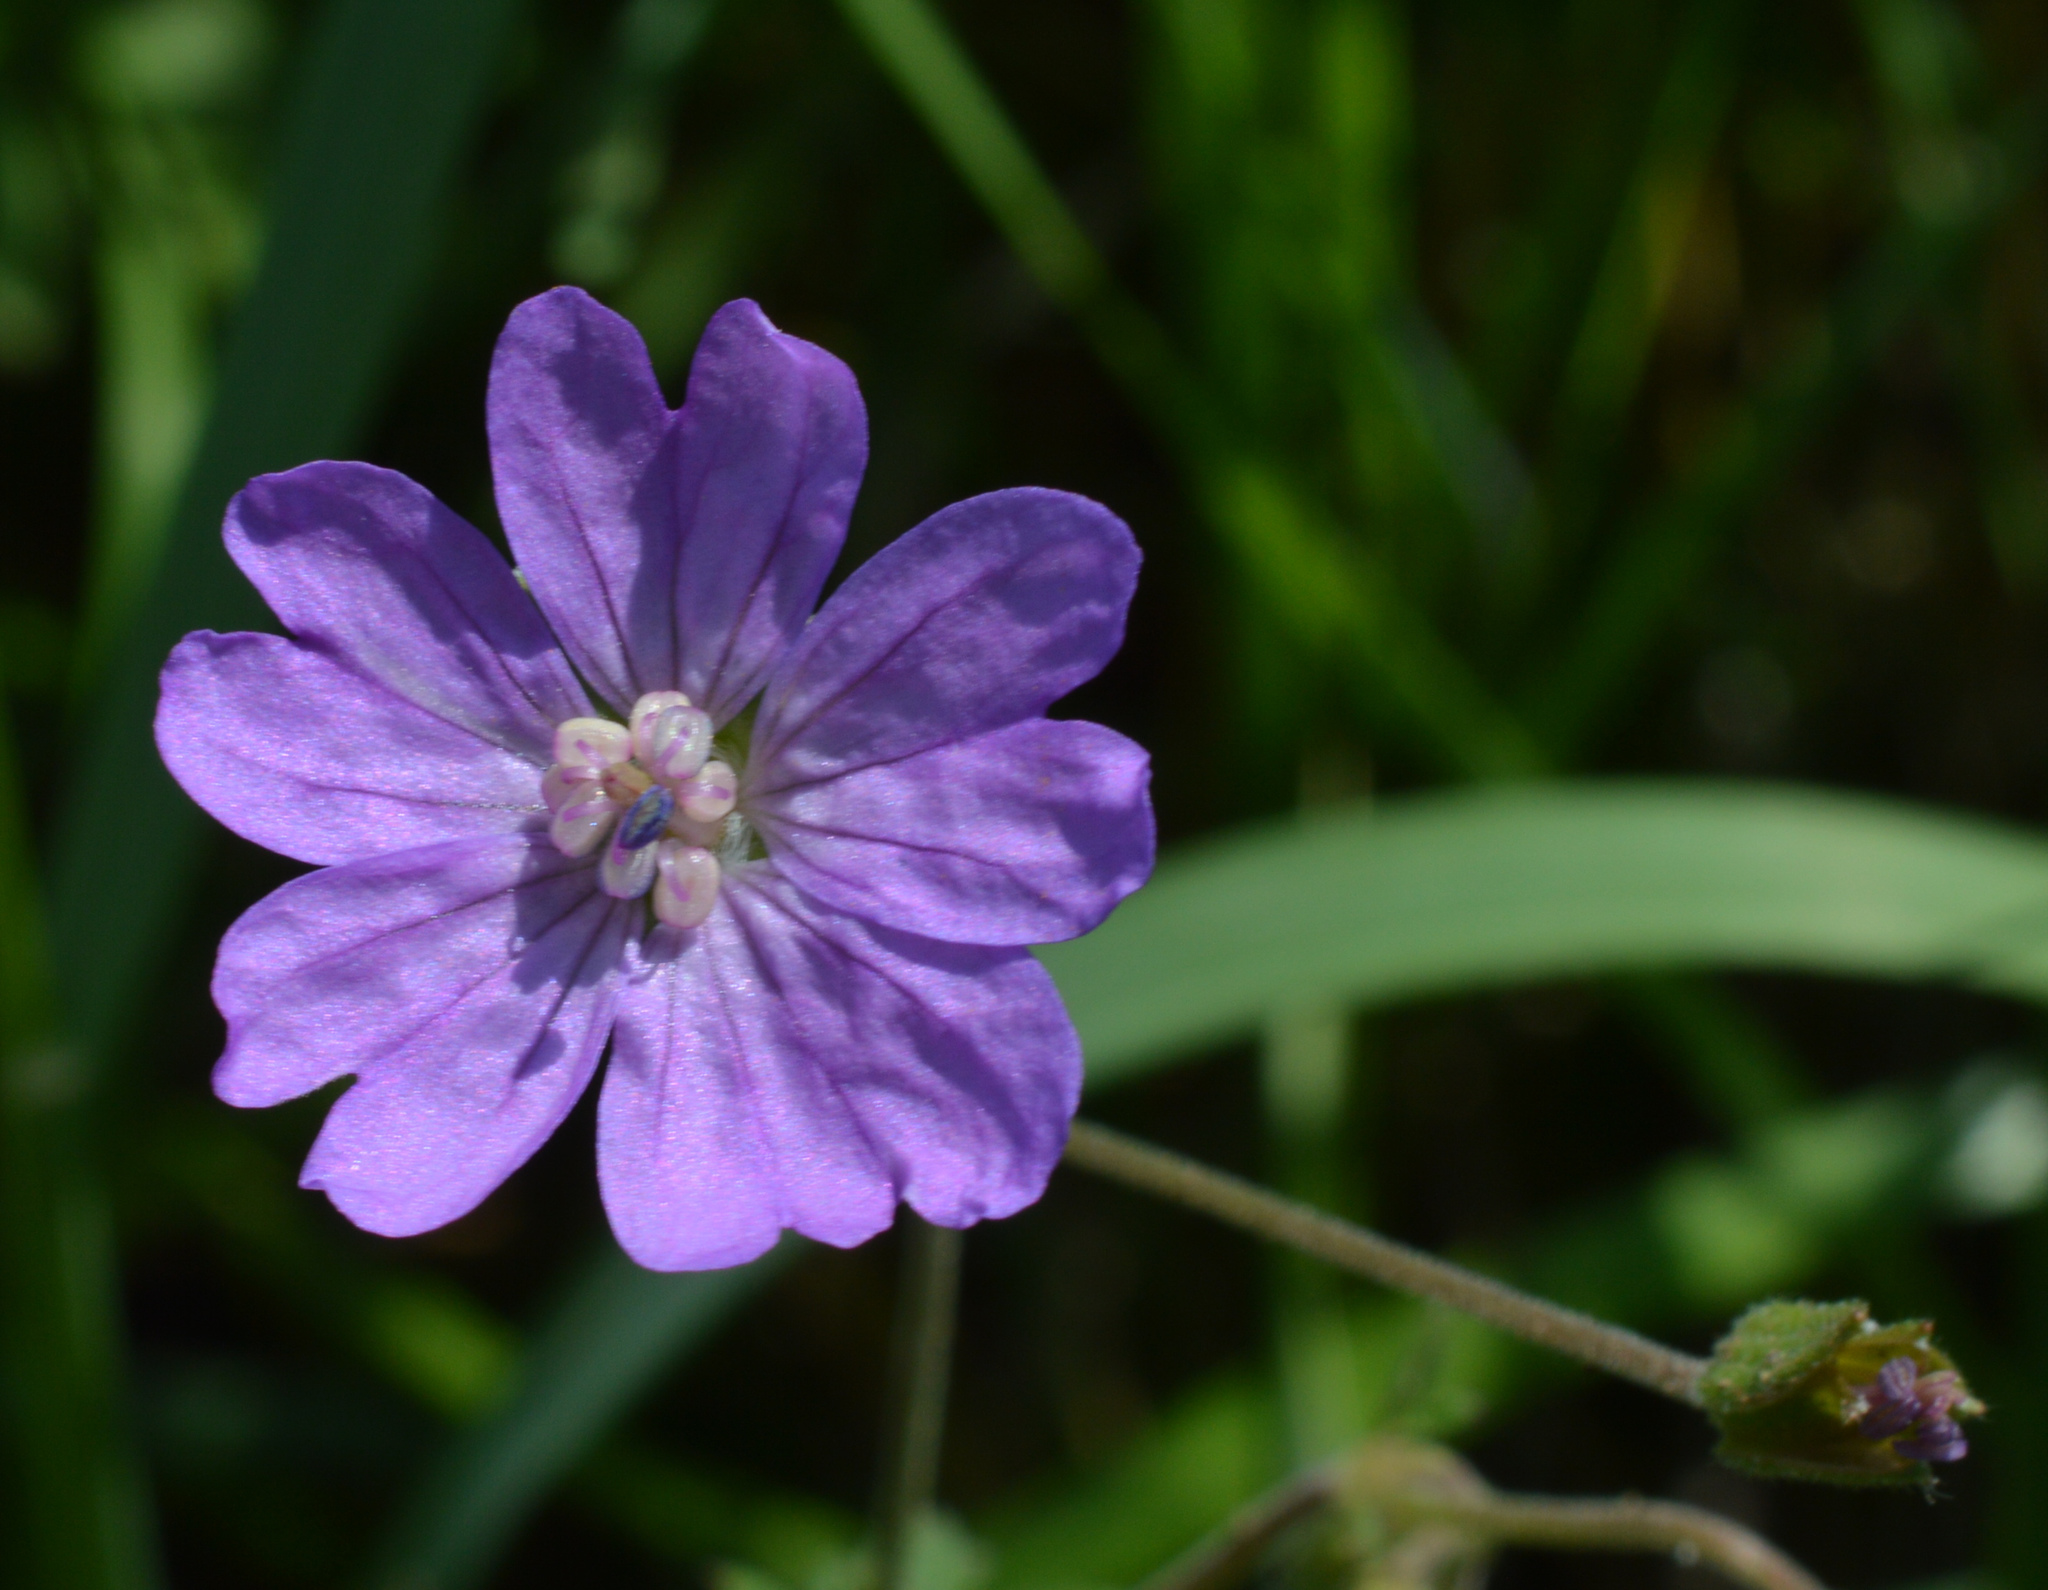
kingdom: Plantae
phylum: Tracheophyta
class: Magnoliopsida
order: Geraniales
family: Geraniaceae
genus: Geranium
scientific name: Geranium pyrenaicum
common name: Hedgerow crane's-bill
